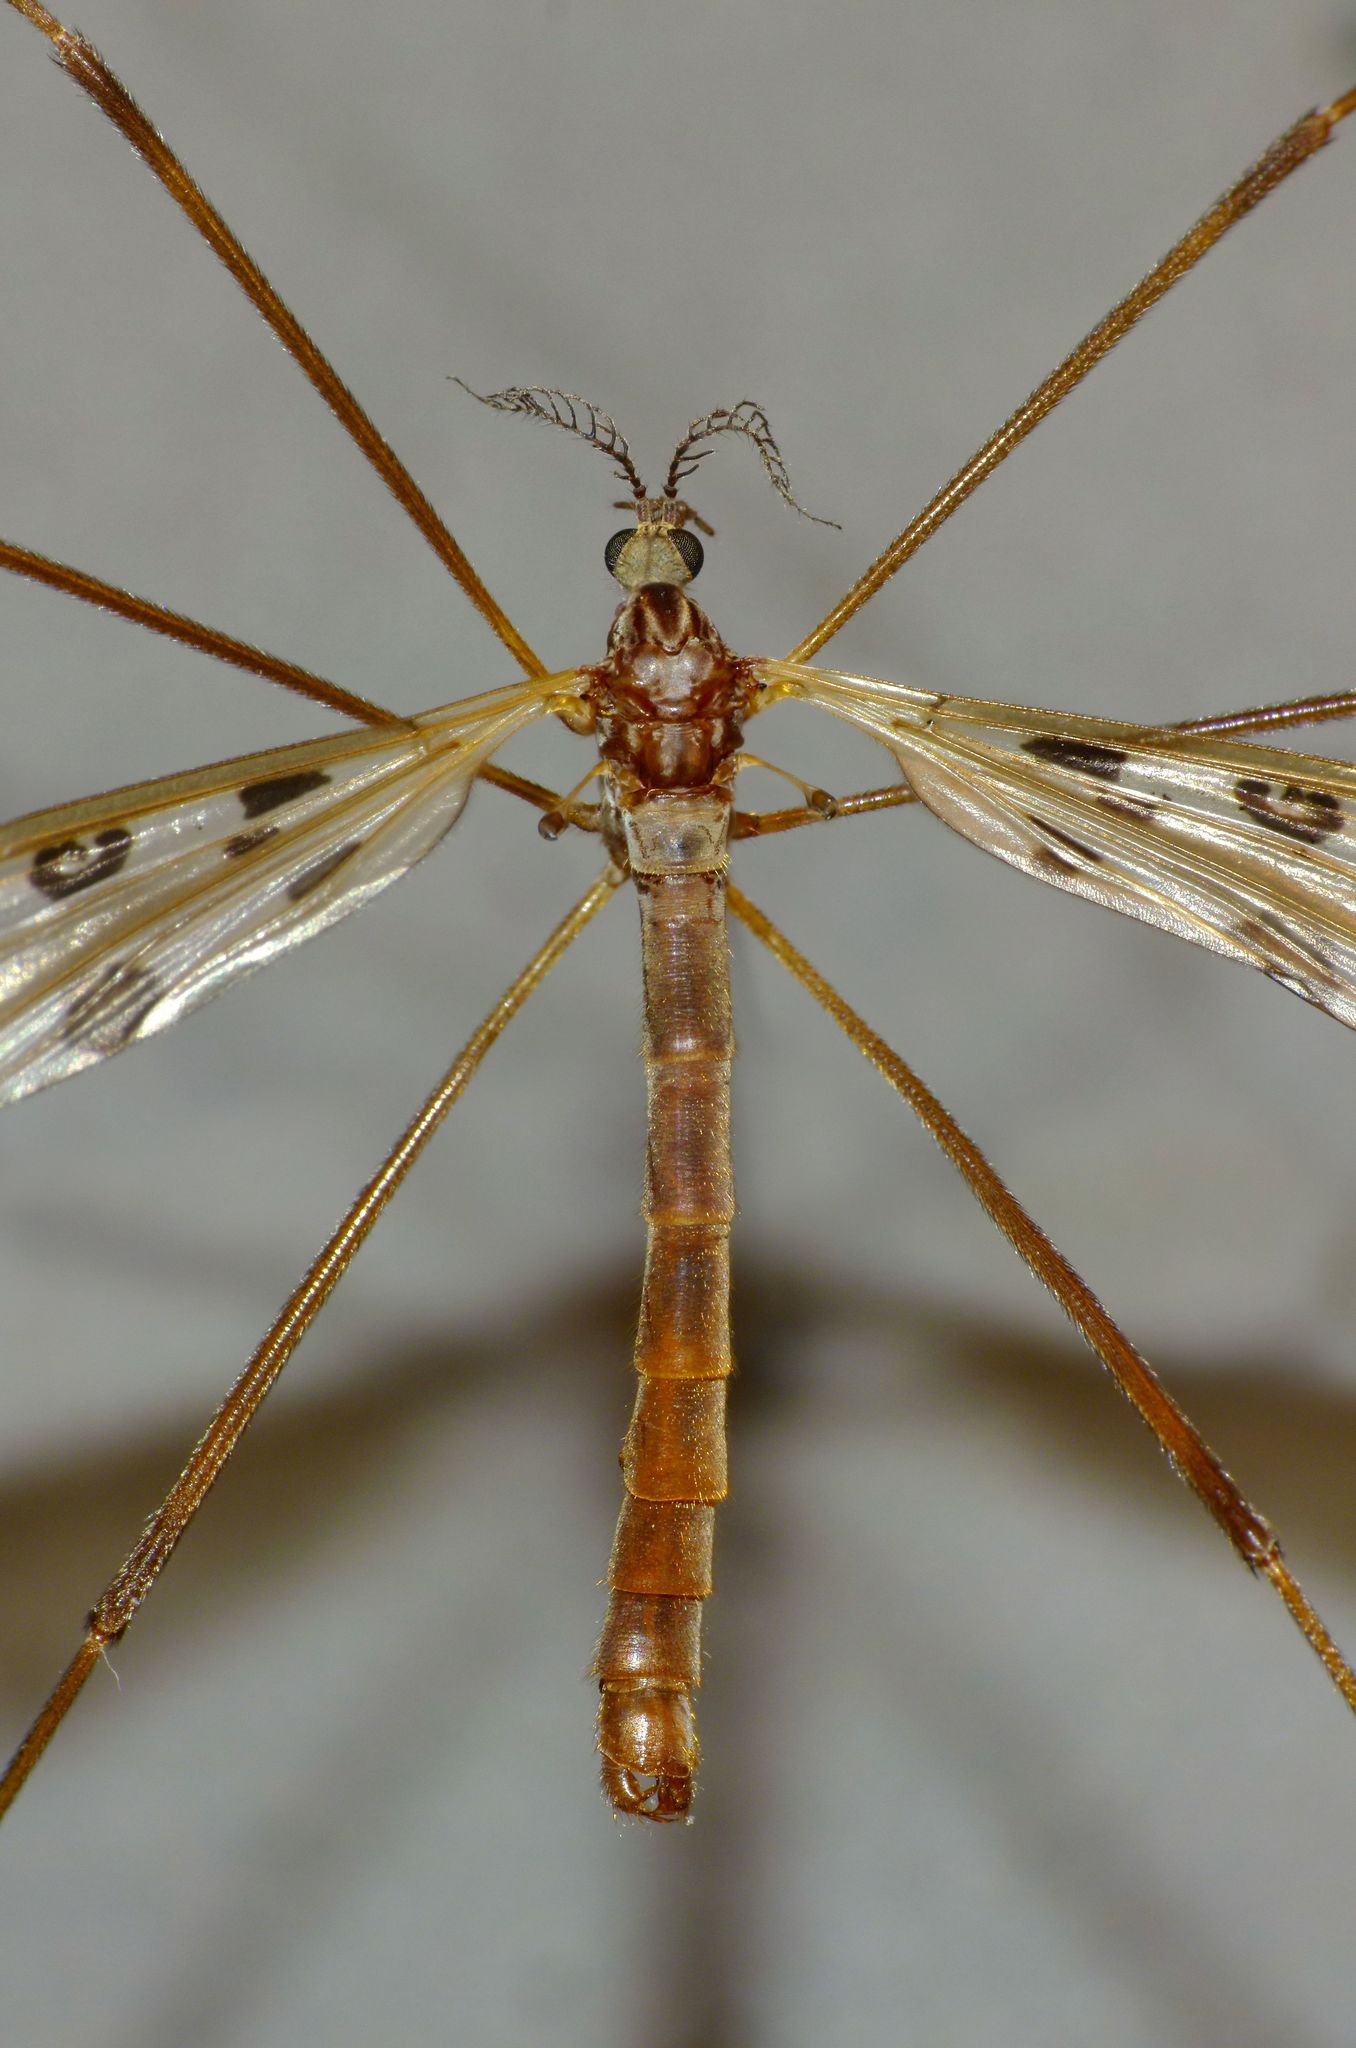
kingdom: Animalia
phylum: Arthropoda
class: Insecta
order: Diptera
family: Limoniidae
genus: Gynoplistia
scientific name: Gynoplistia notata
